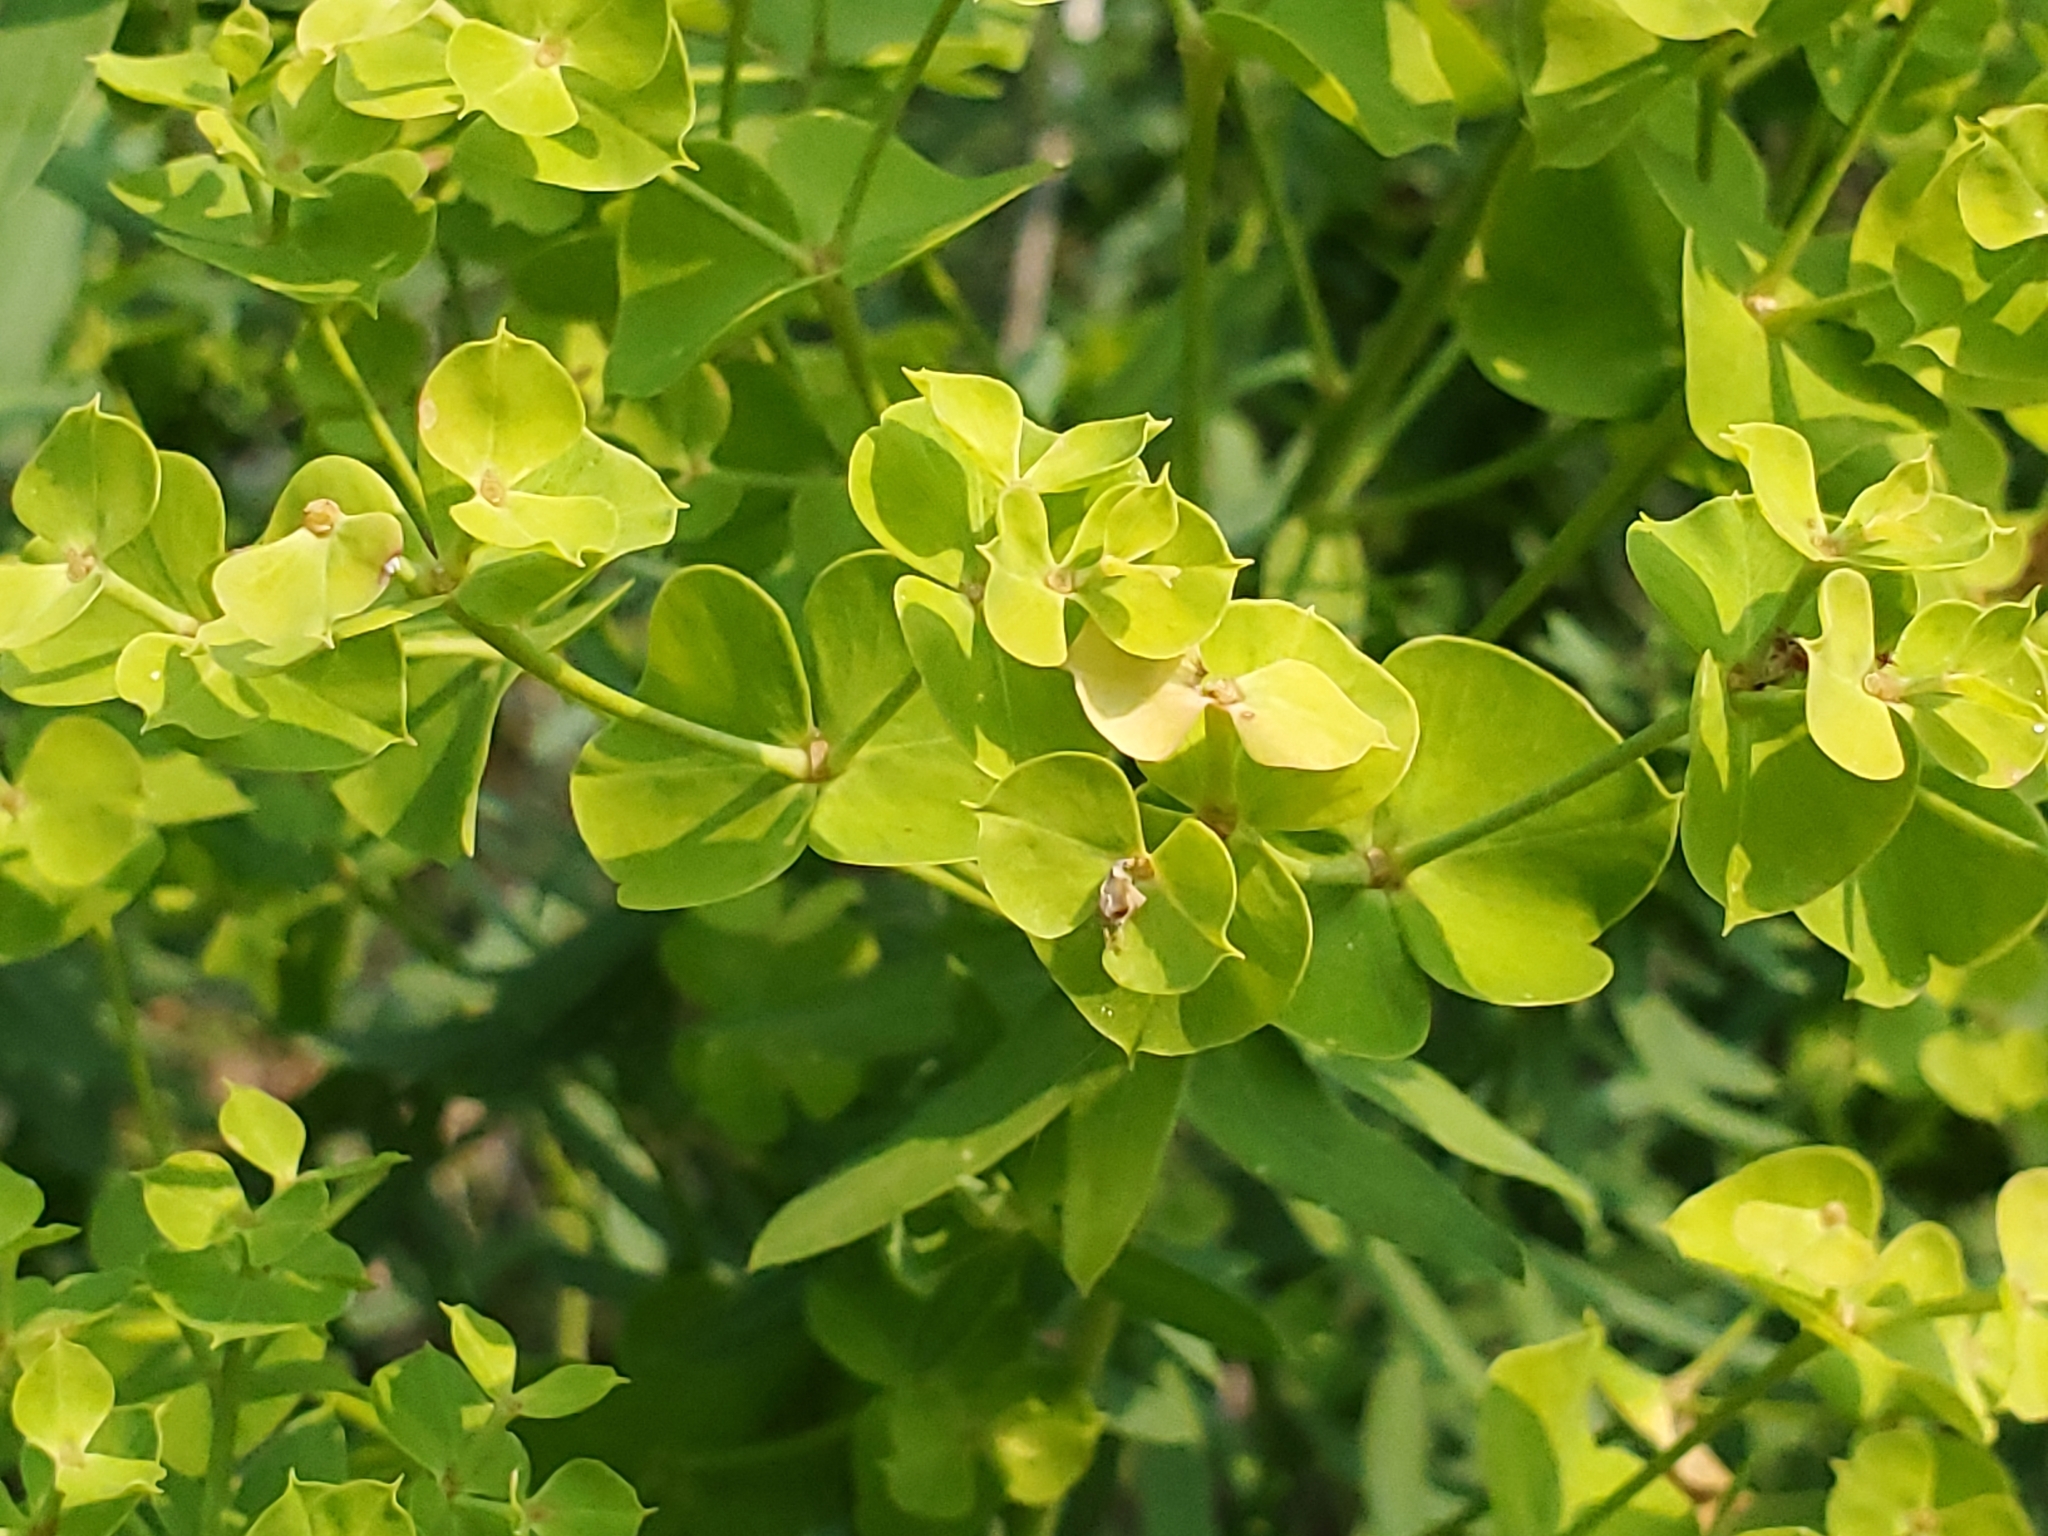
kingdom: Plantae
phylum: Tracheophyta
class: Magnoliopsida
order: Malpighiales
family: Euphorbiaceae
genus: Euphorbia
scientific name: Euphorbia esula
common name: Leafy spurge
